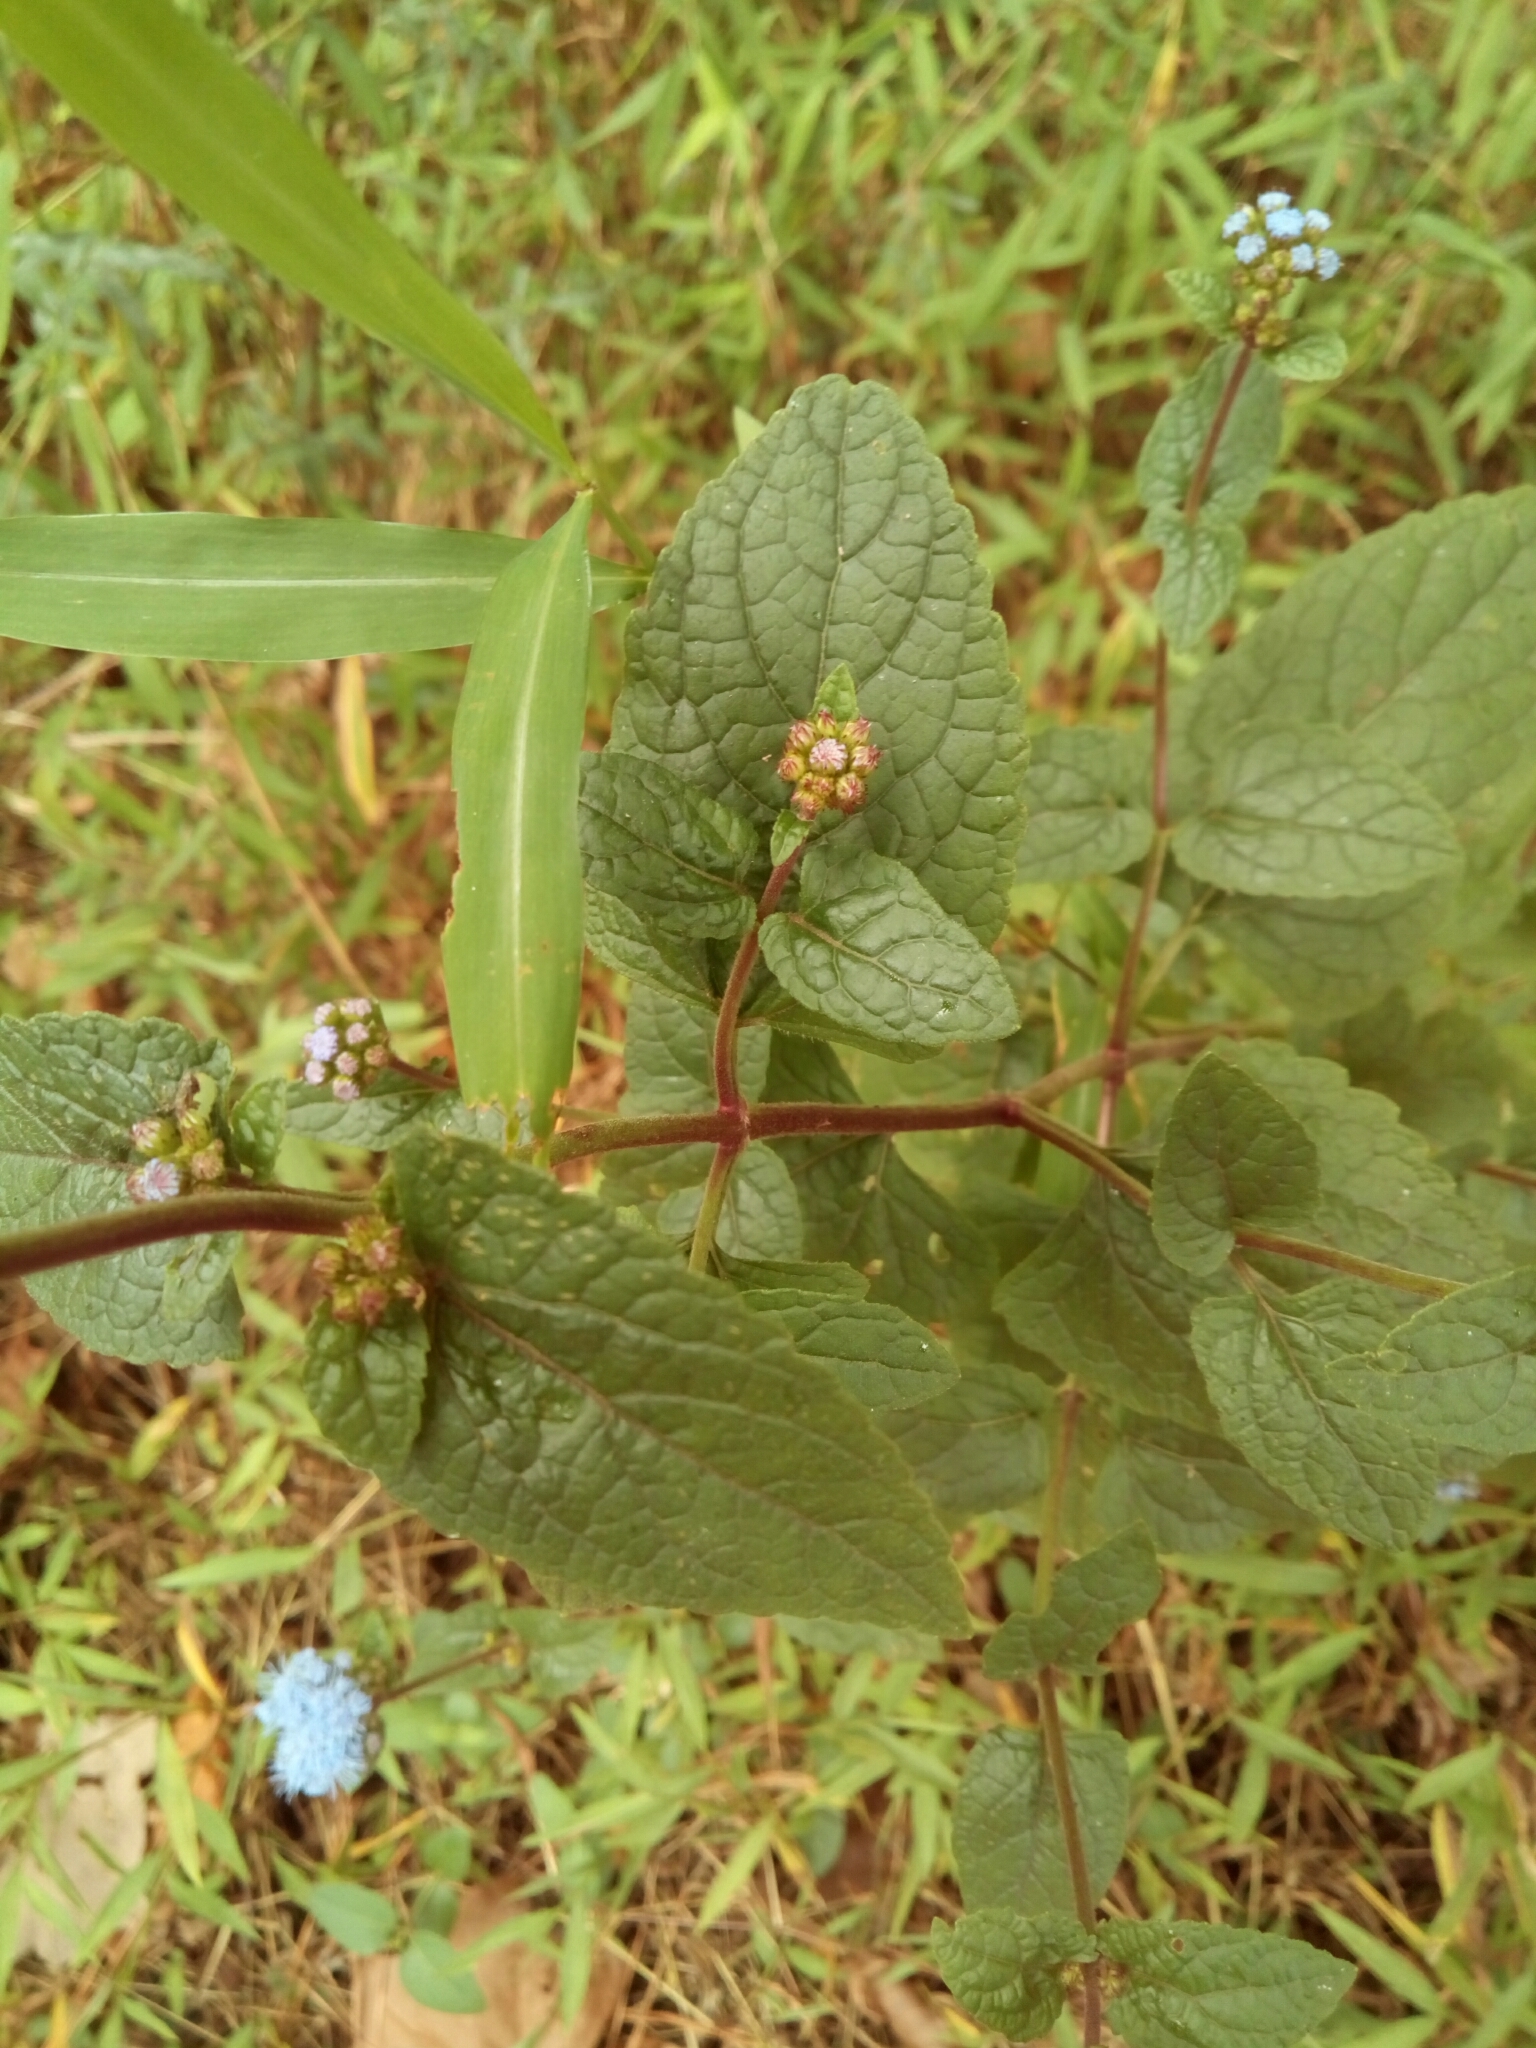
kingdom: Plantae
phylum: Tracheophyta
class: Magnoliopsida
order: Asterales
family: Asteraceae
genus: Conoclinium
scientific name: Conoclinium coelestinum
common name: Blue mistflower
